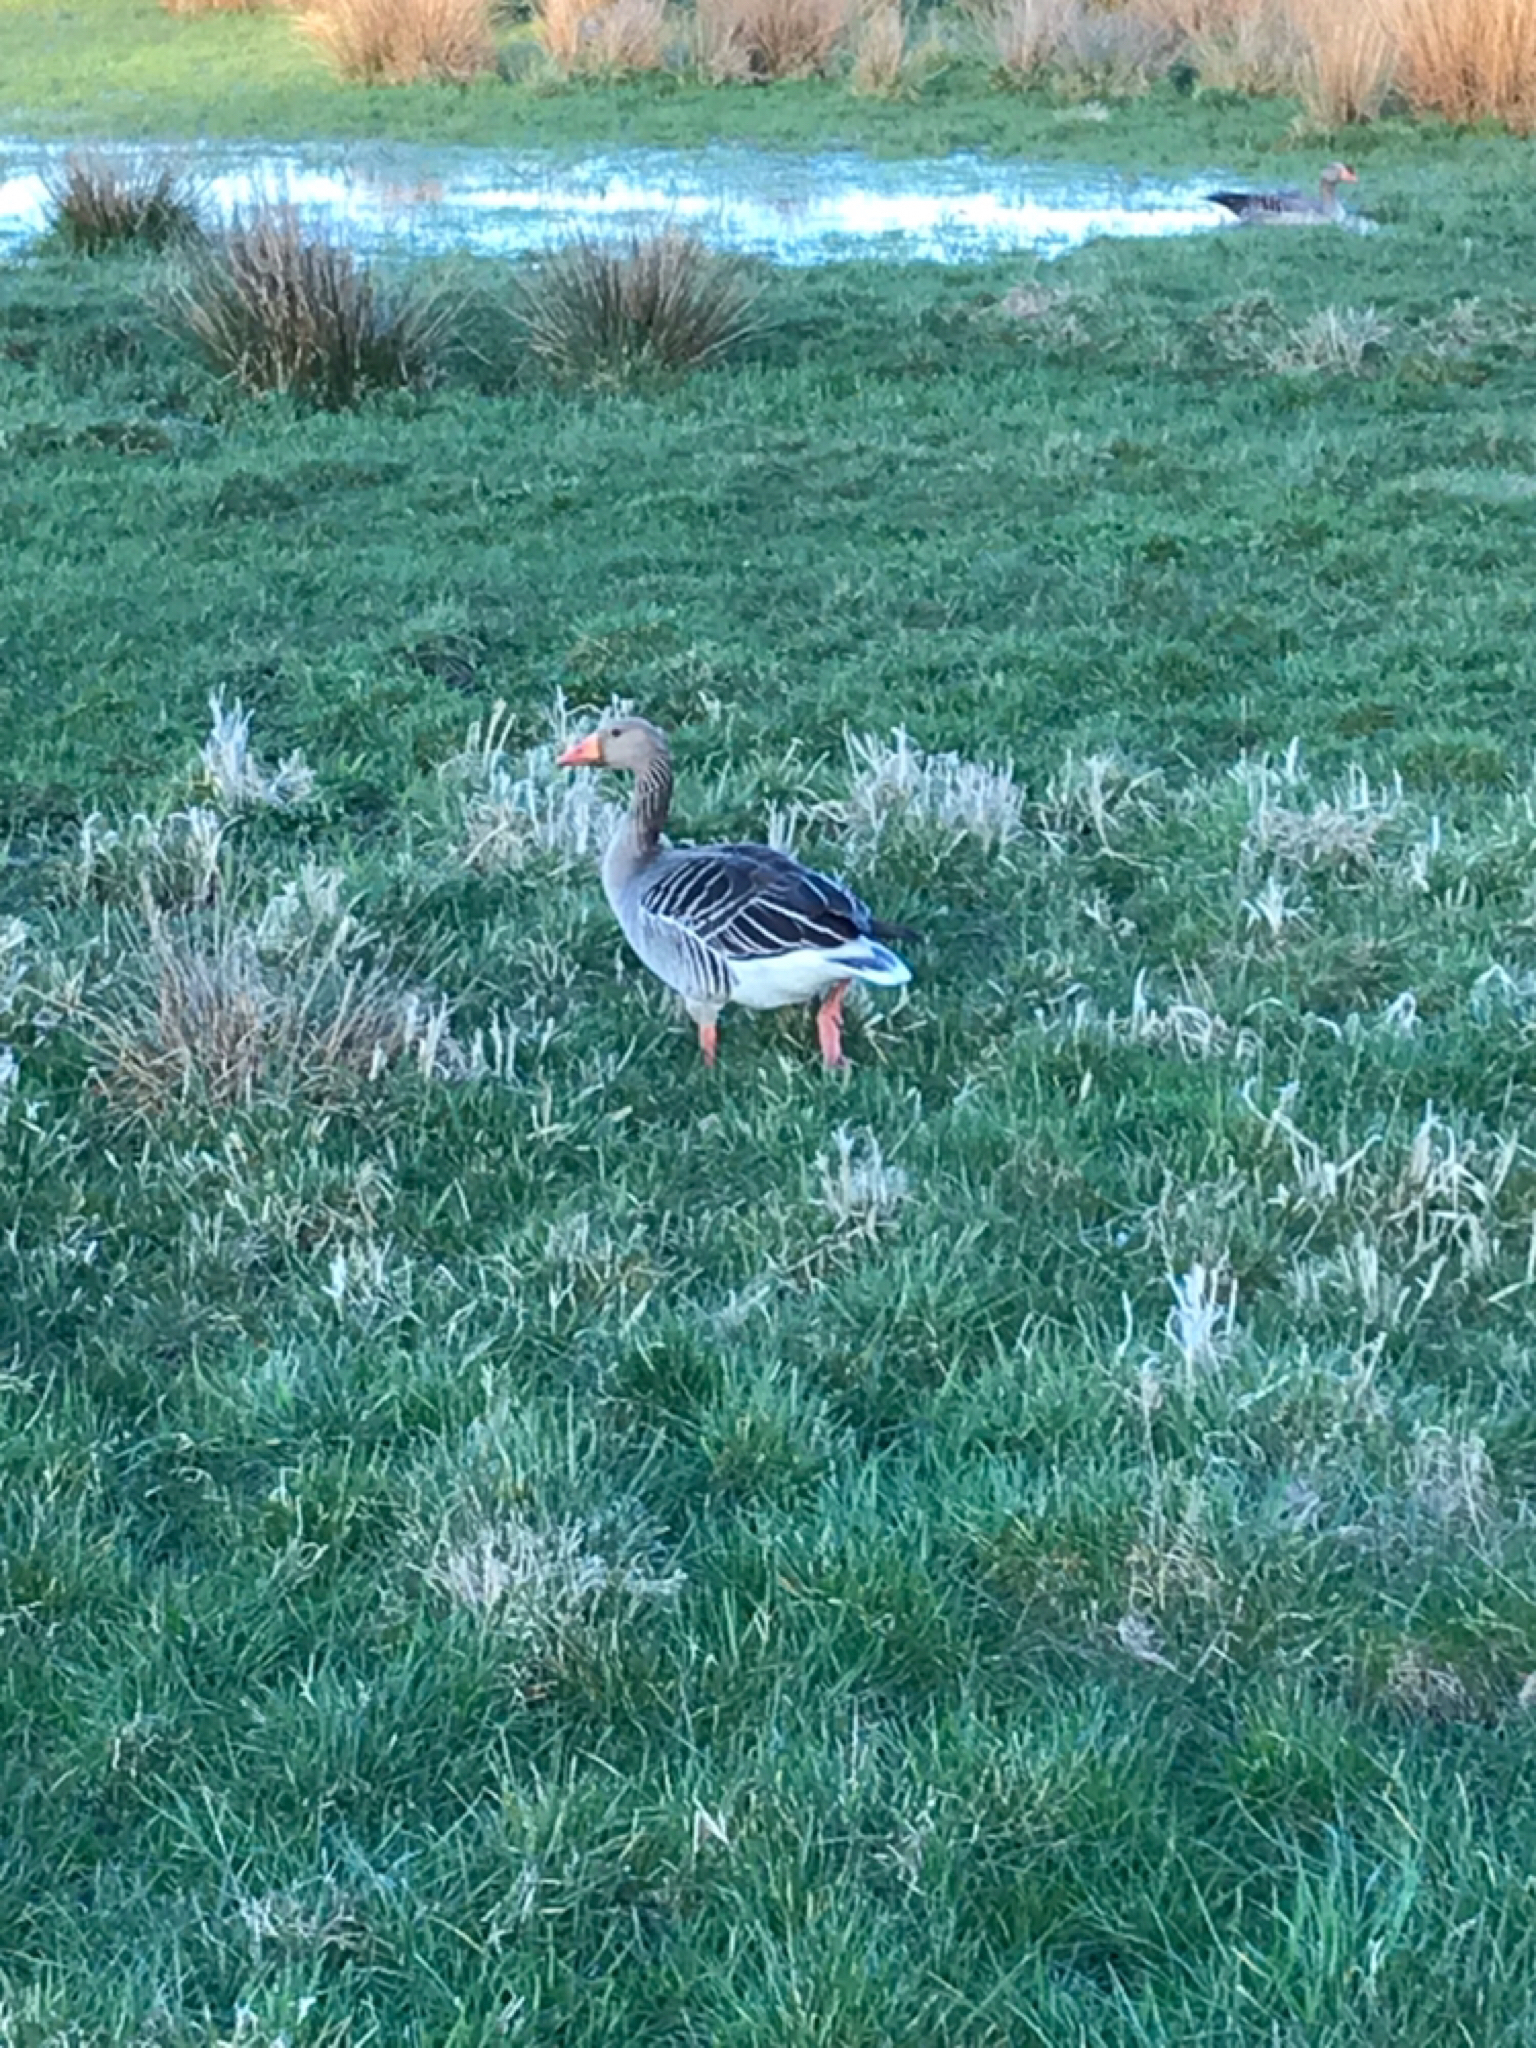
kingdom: Animalia
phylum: Chordata
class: Aves
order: Anseriformes
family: Anatidae
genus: Anser
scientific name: Anser anser
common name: Greylag goose
